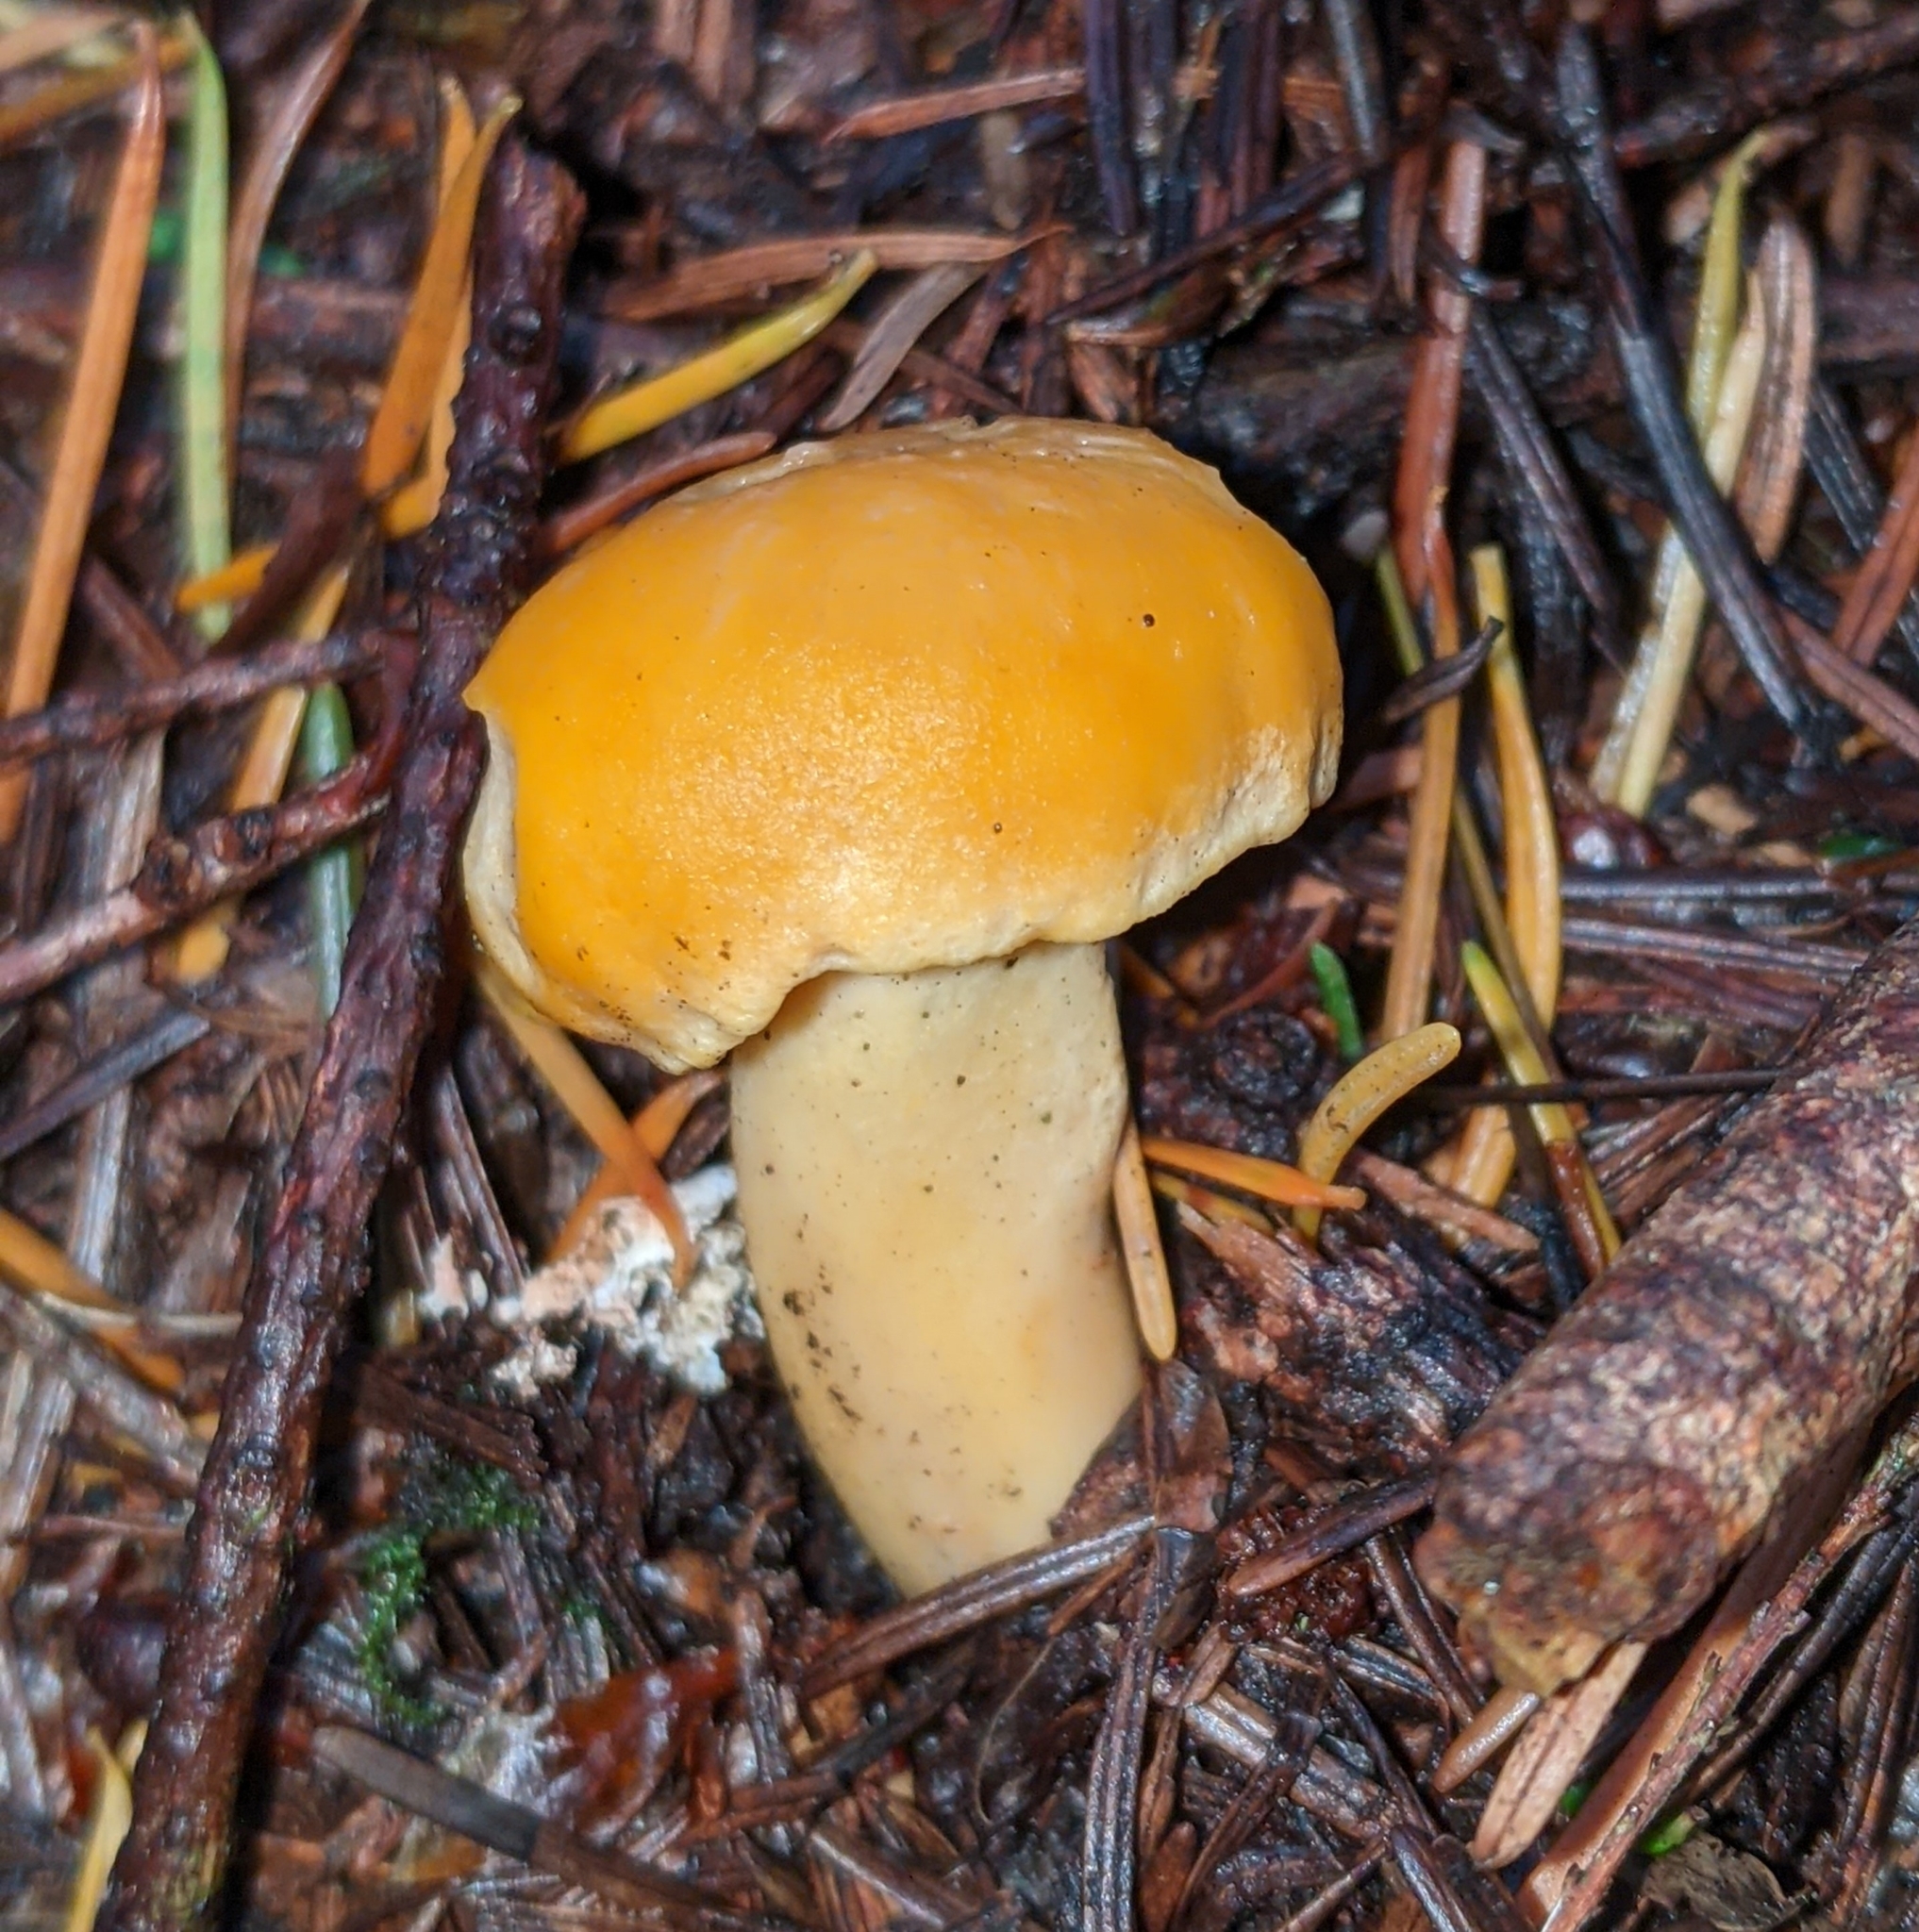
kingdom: Fungi
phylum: Basidiomycota
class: Agaricomycetes
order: Cantharellales
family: Hydnaceae
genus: Cantharellus
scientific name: Cantharellus formosus
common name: Pacific golden chanterelle
